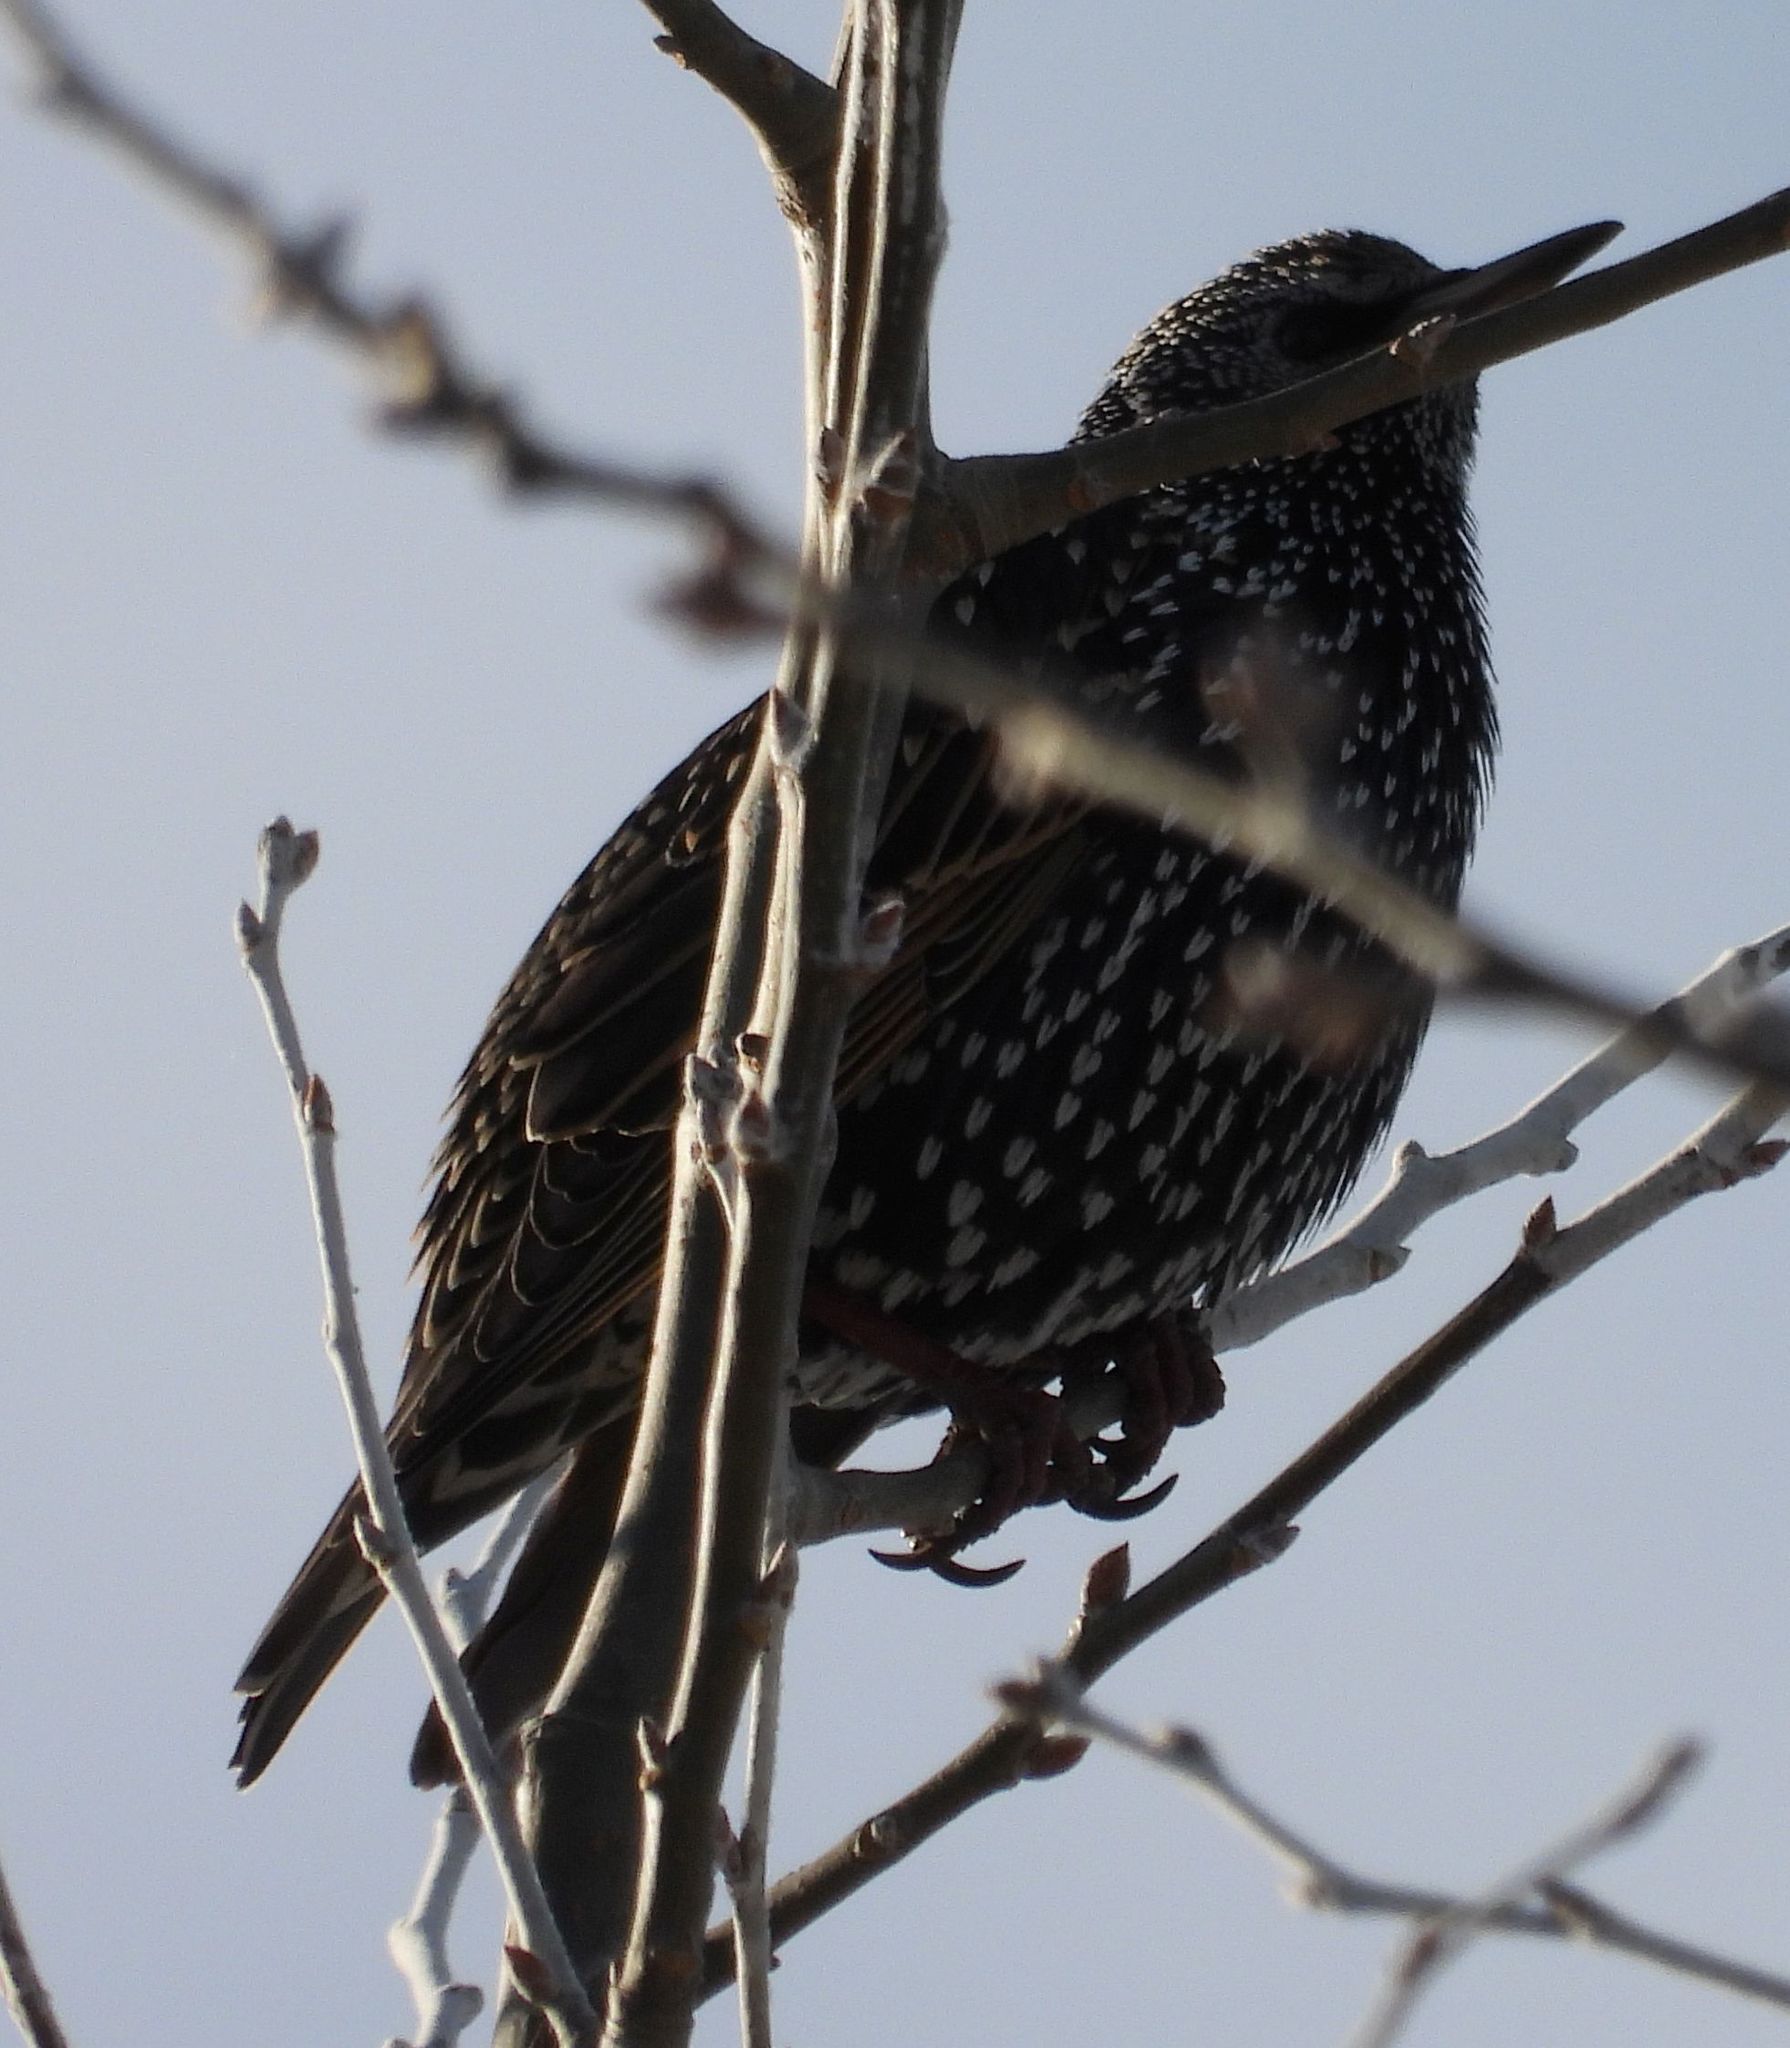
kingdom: Animalia
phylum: Chordata
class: Aves
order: Passeriformes
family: Sturnidae
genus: Sturnus
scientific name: Sturnus vulgaris
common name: Common starling
